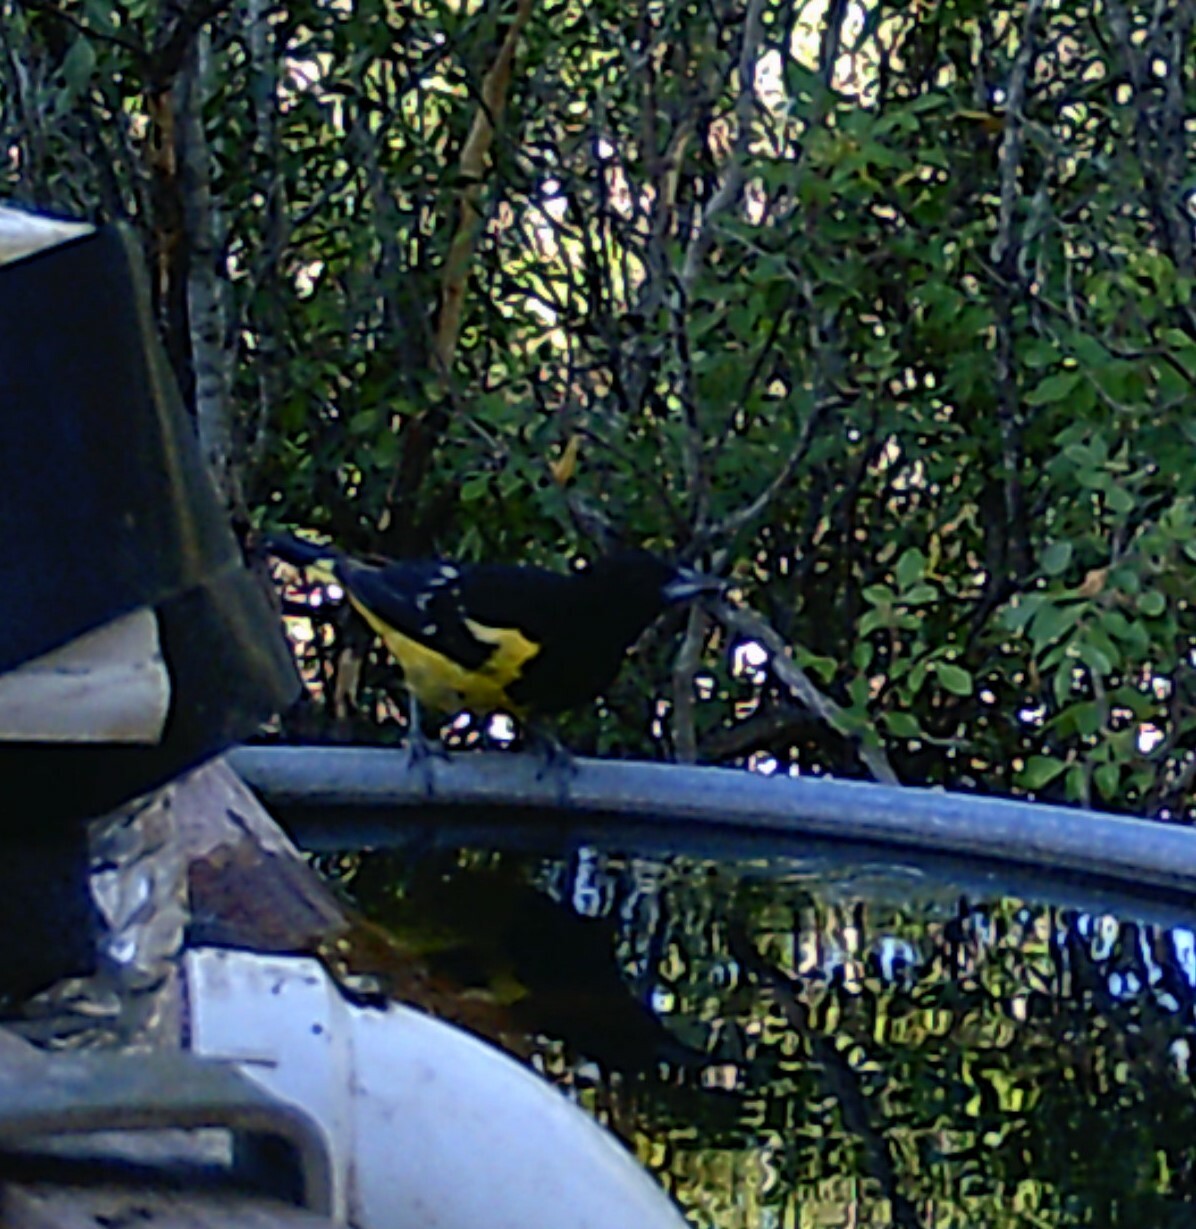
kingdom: Animalia
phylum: Chordata
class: Aves
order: Passeriformes
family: Icteridae
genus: Icterus
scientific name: Icterus parisorum
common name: Scott's oriole
